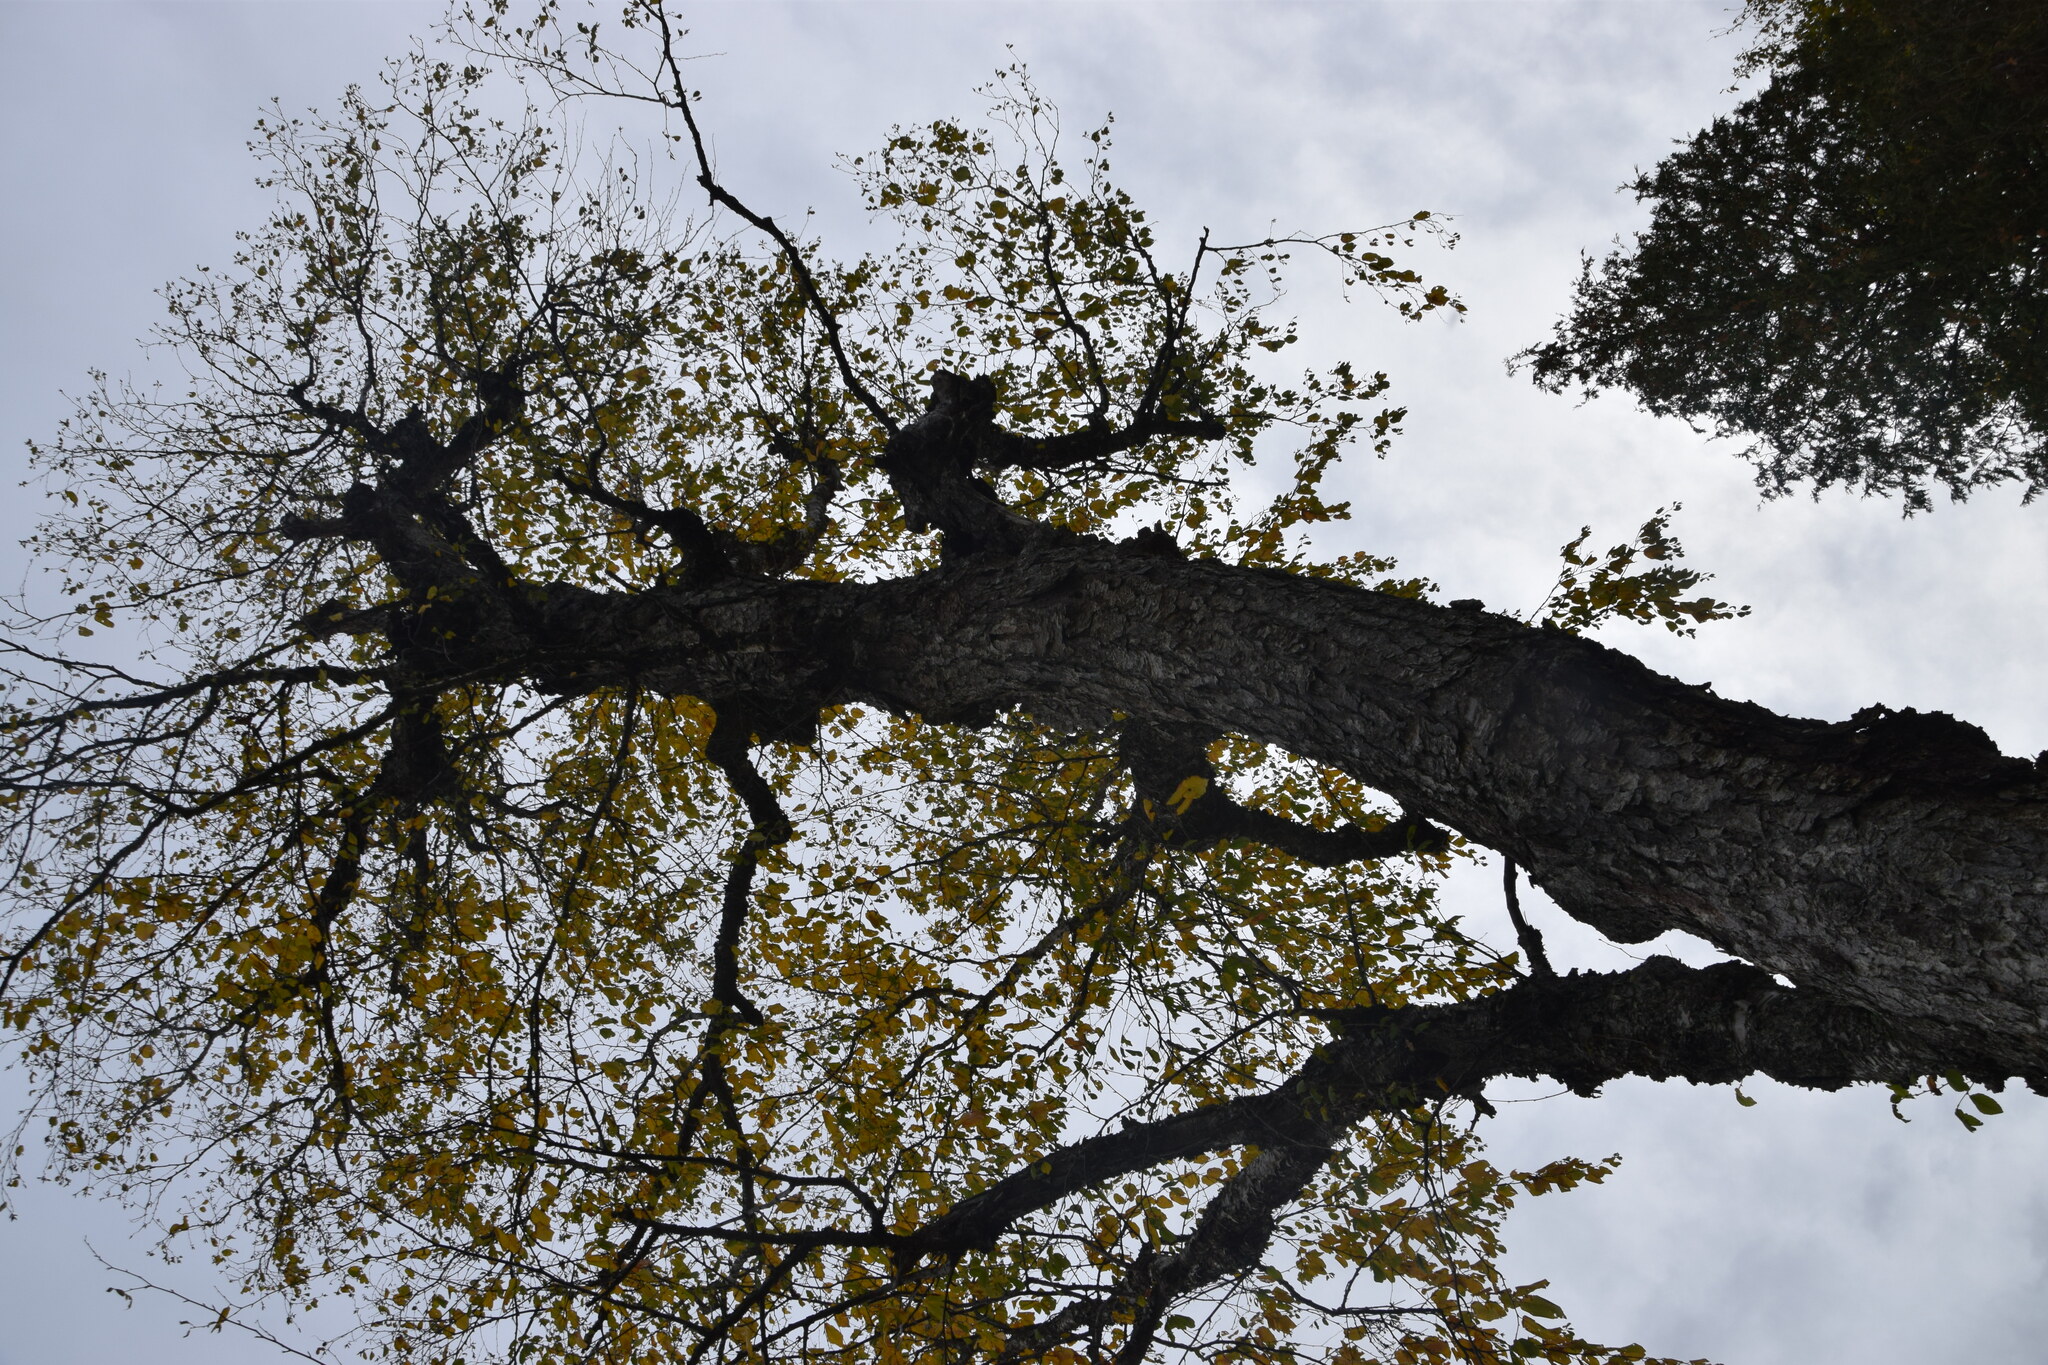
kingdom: Plantae
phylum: Tracheophyta
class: Magnoliopsida
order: Fagales
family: Betulaceae
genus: Betula
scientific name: Betula alleghaniensis
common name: Yellow birch
